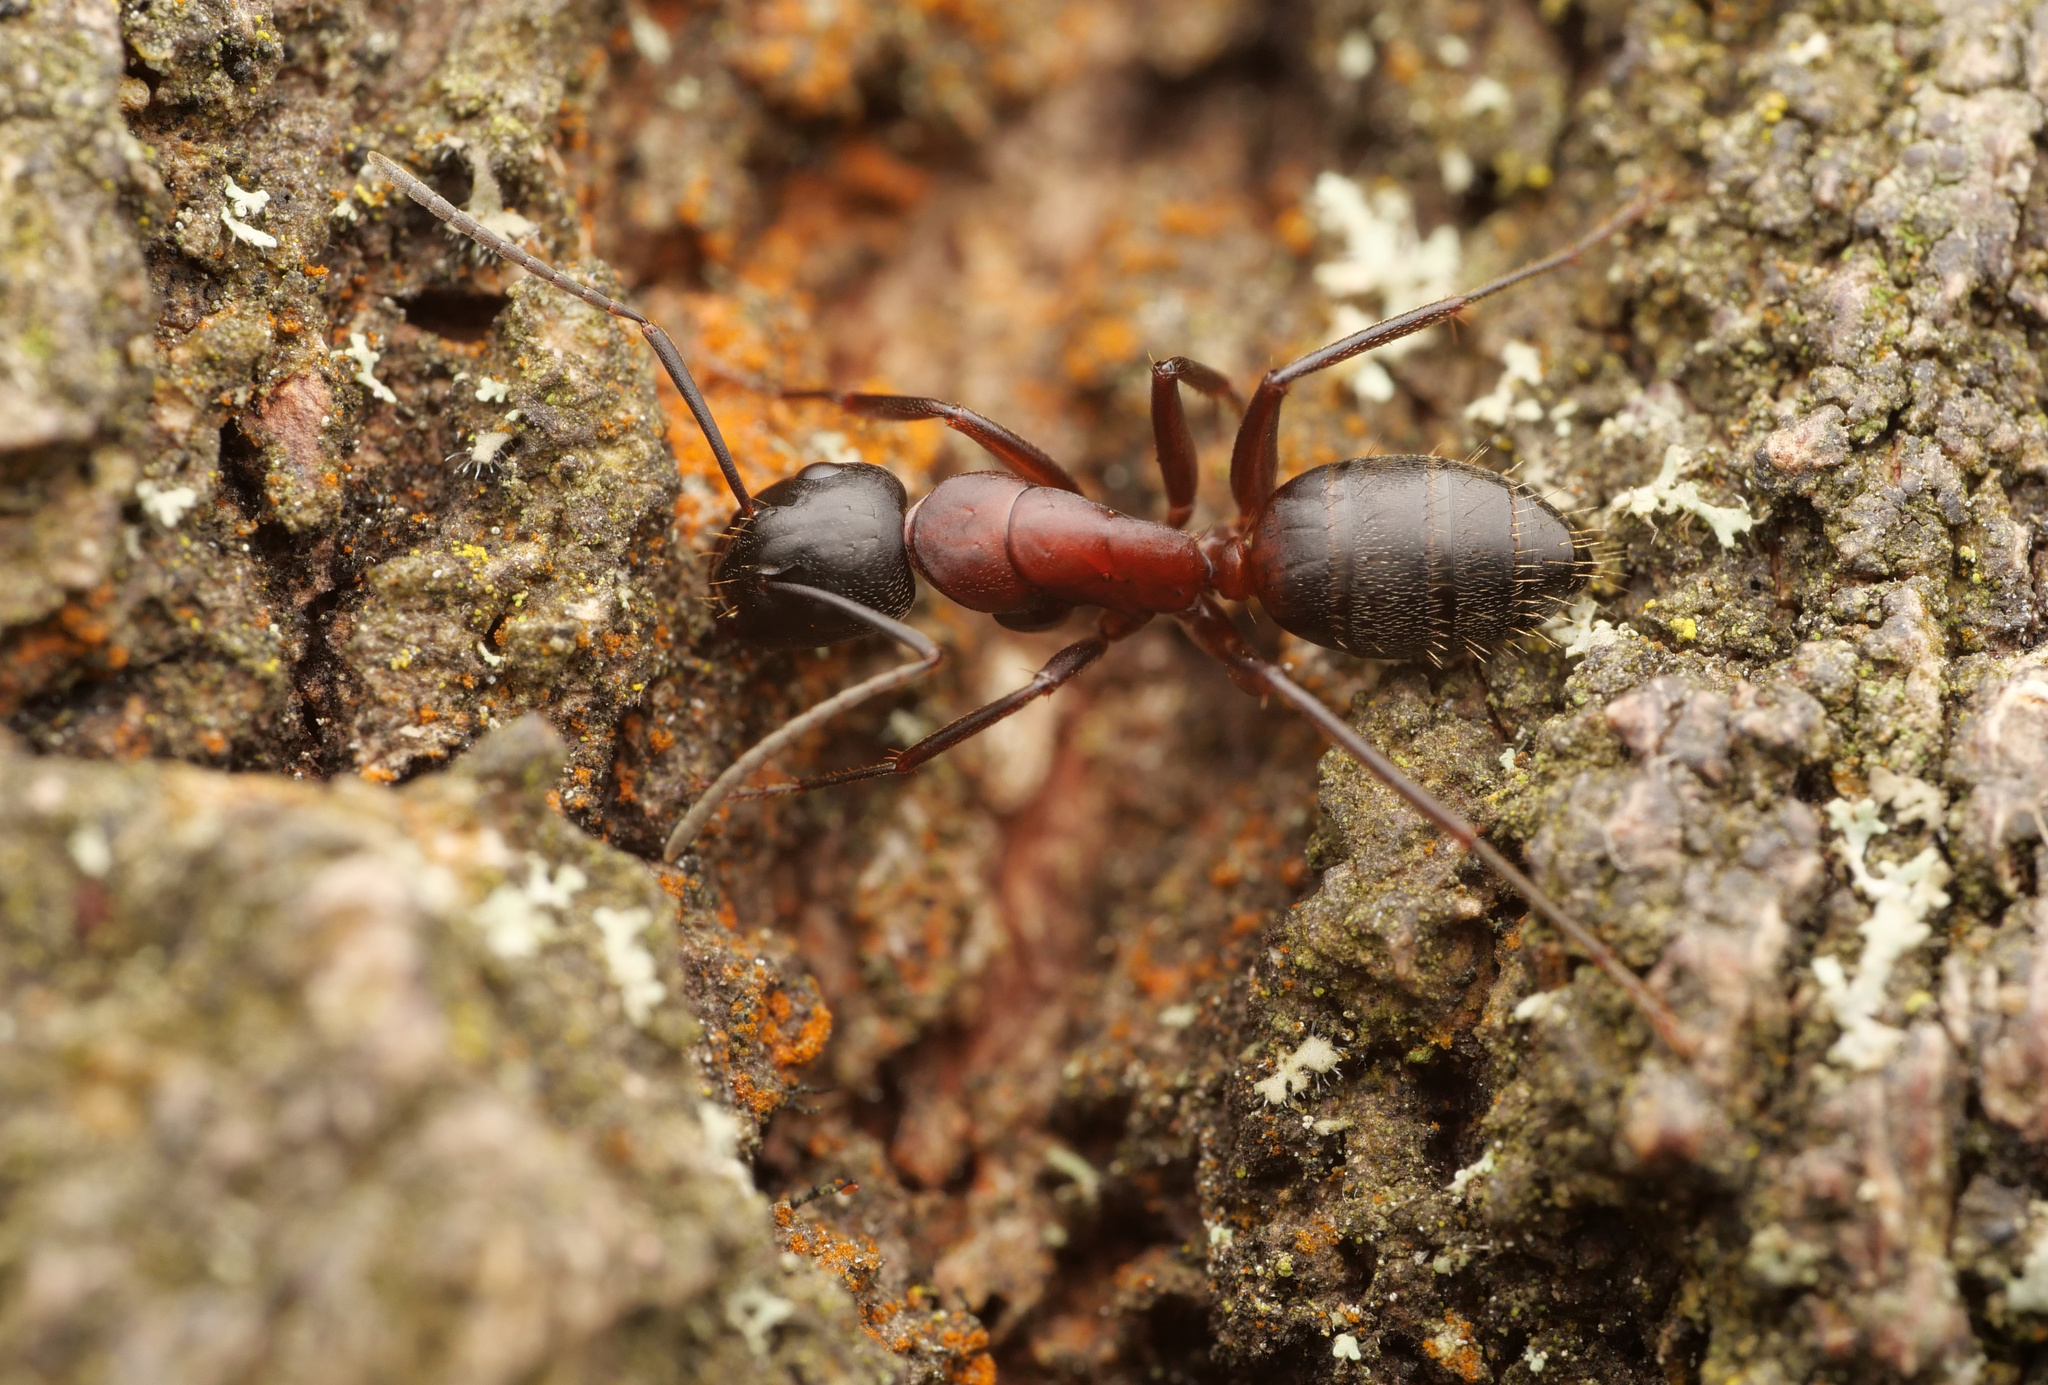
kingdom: Animalia
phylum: Arthropoda
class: Insecta
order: Hymenoptera
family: Formicidae
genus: Camponotus
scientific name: Camponotus ligniperdus
